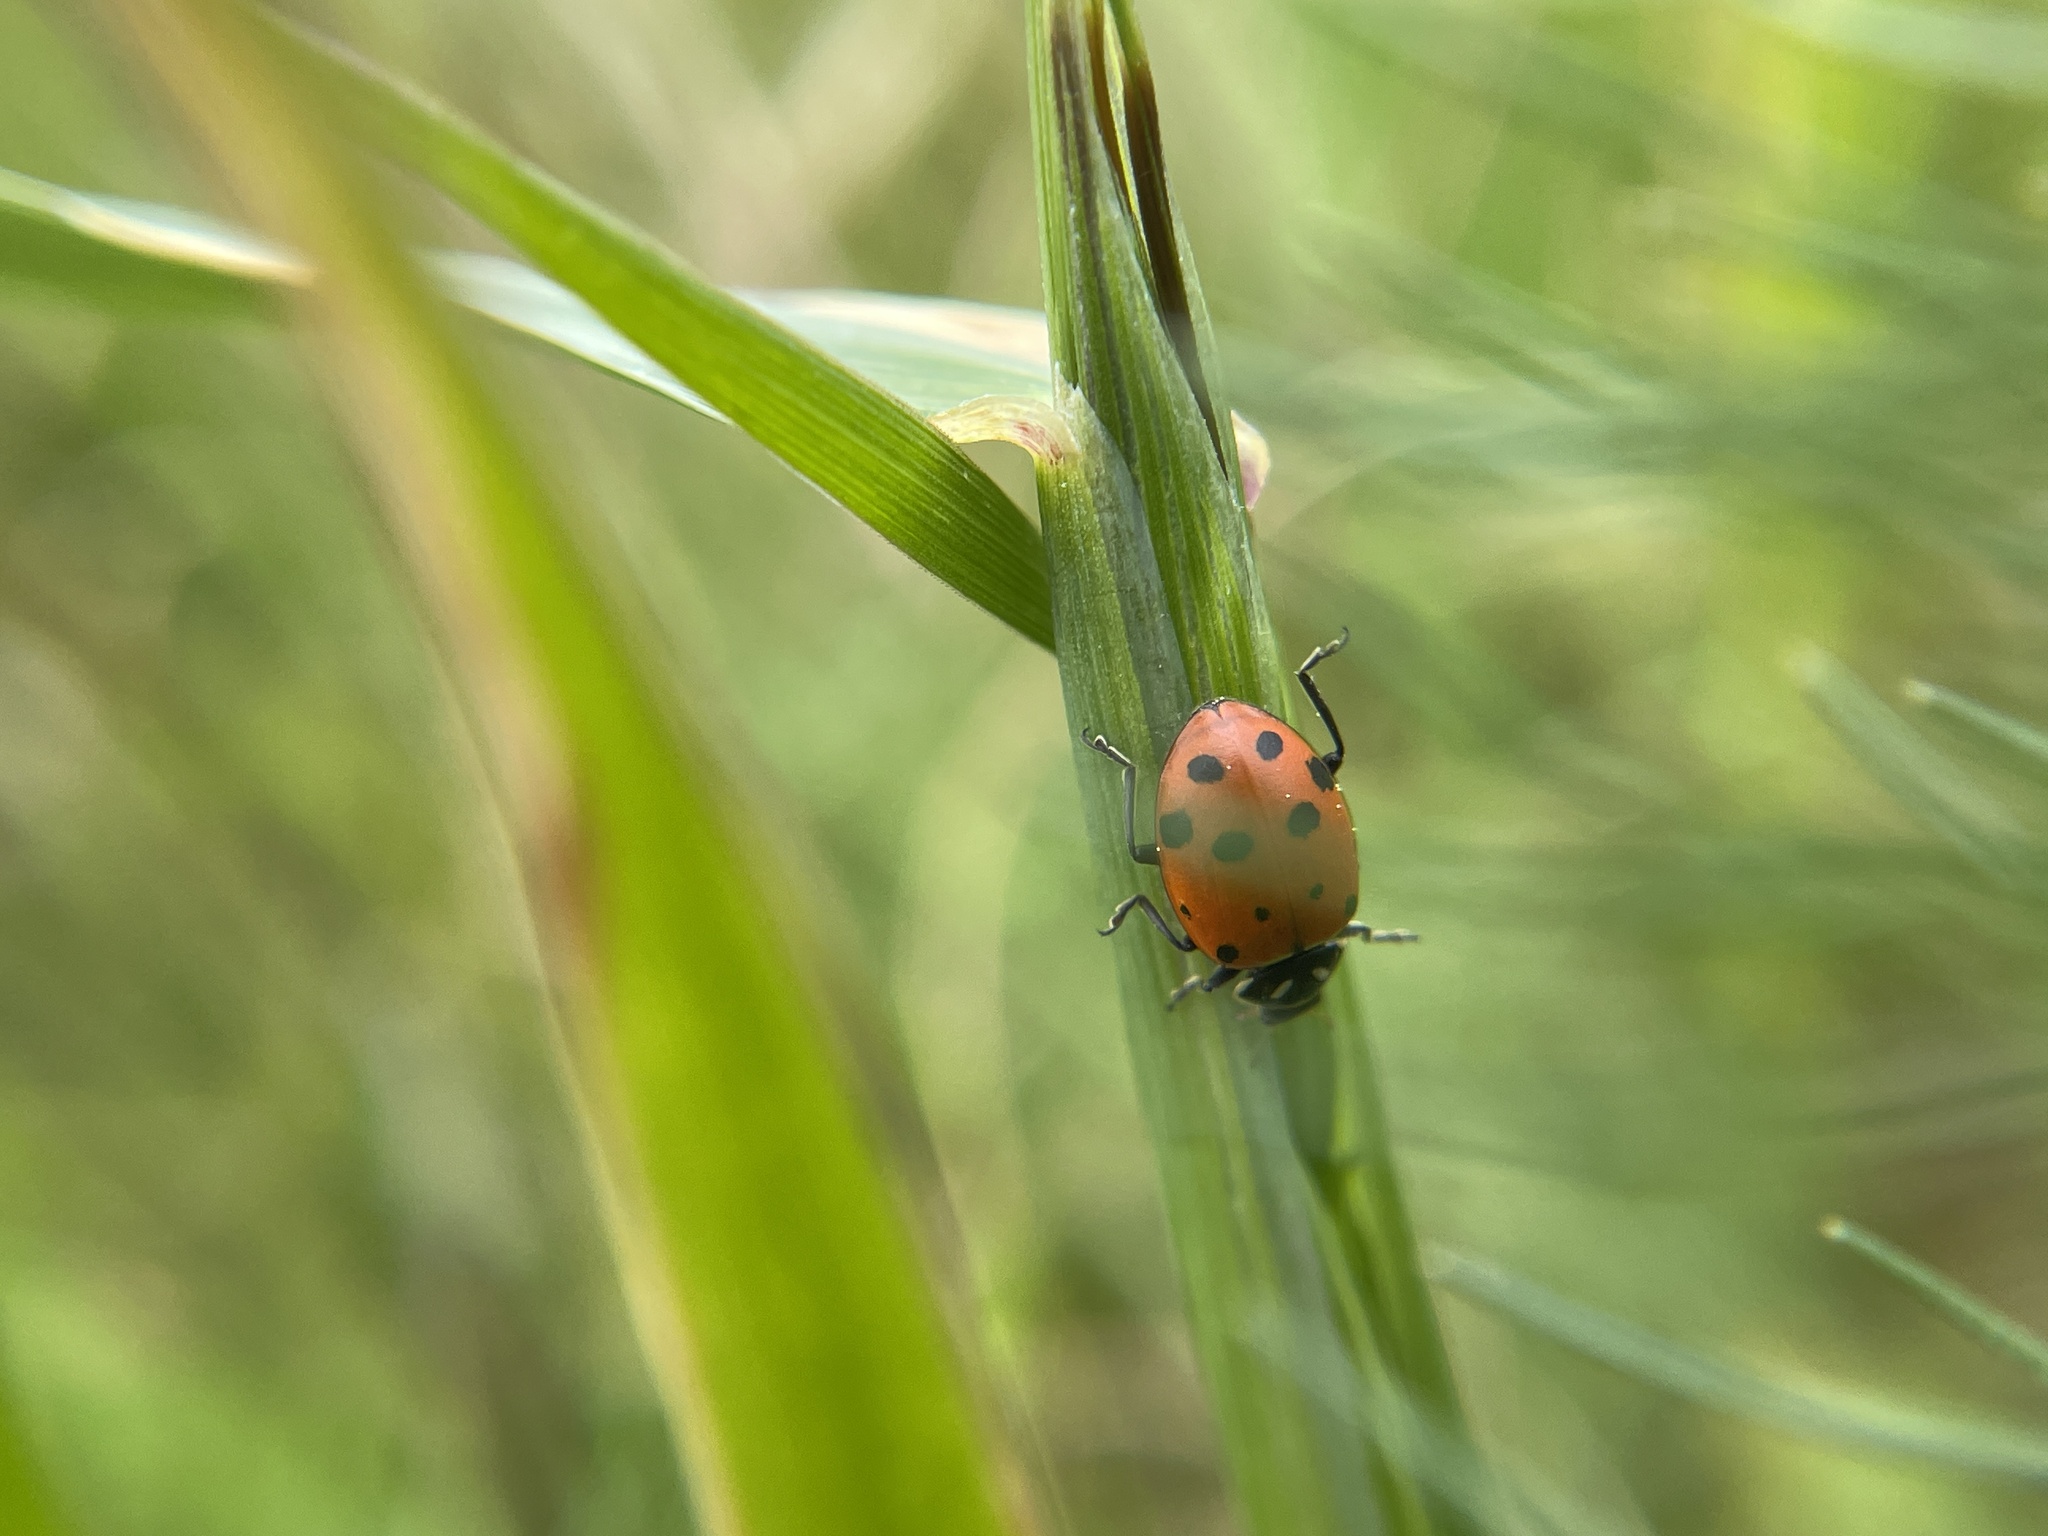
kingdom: Animalia
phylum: Arthropoda
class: Insecta
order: Coleoptera
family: Coccinellidae
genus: Hippodamia
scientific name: Hippodamia convergens
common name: Convergent lady beetle
